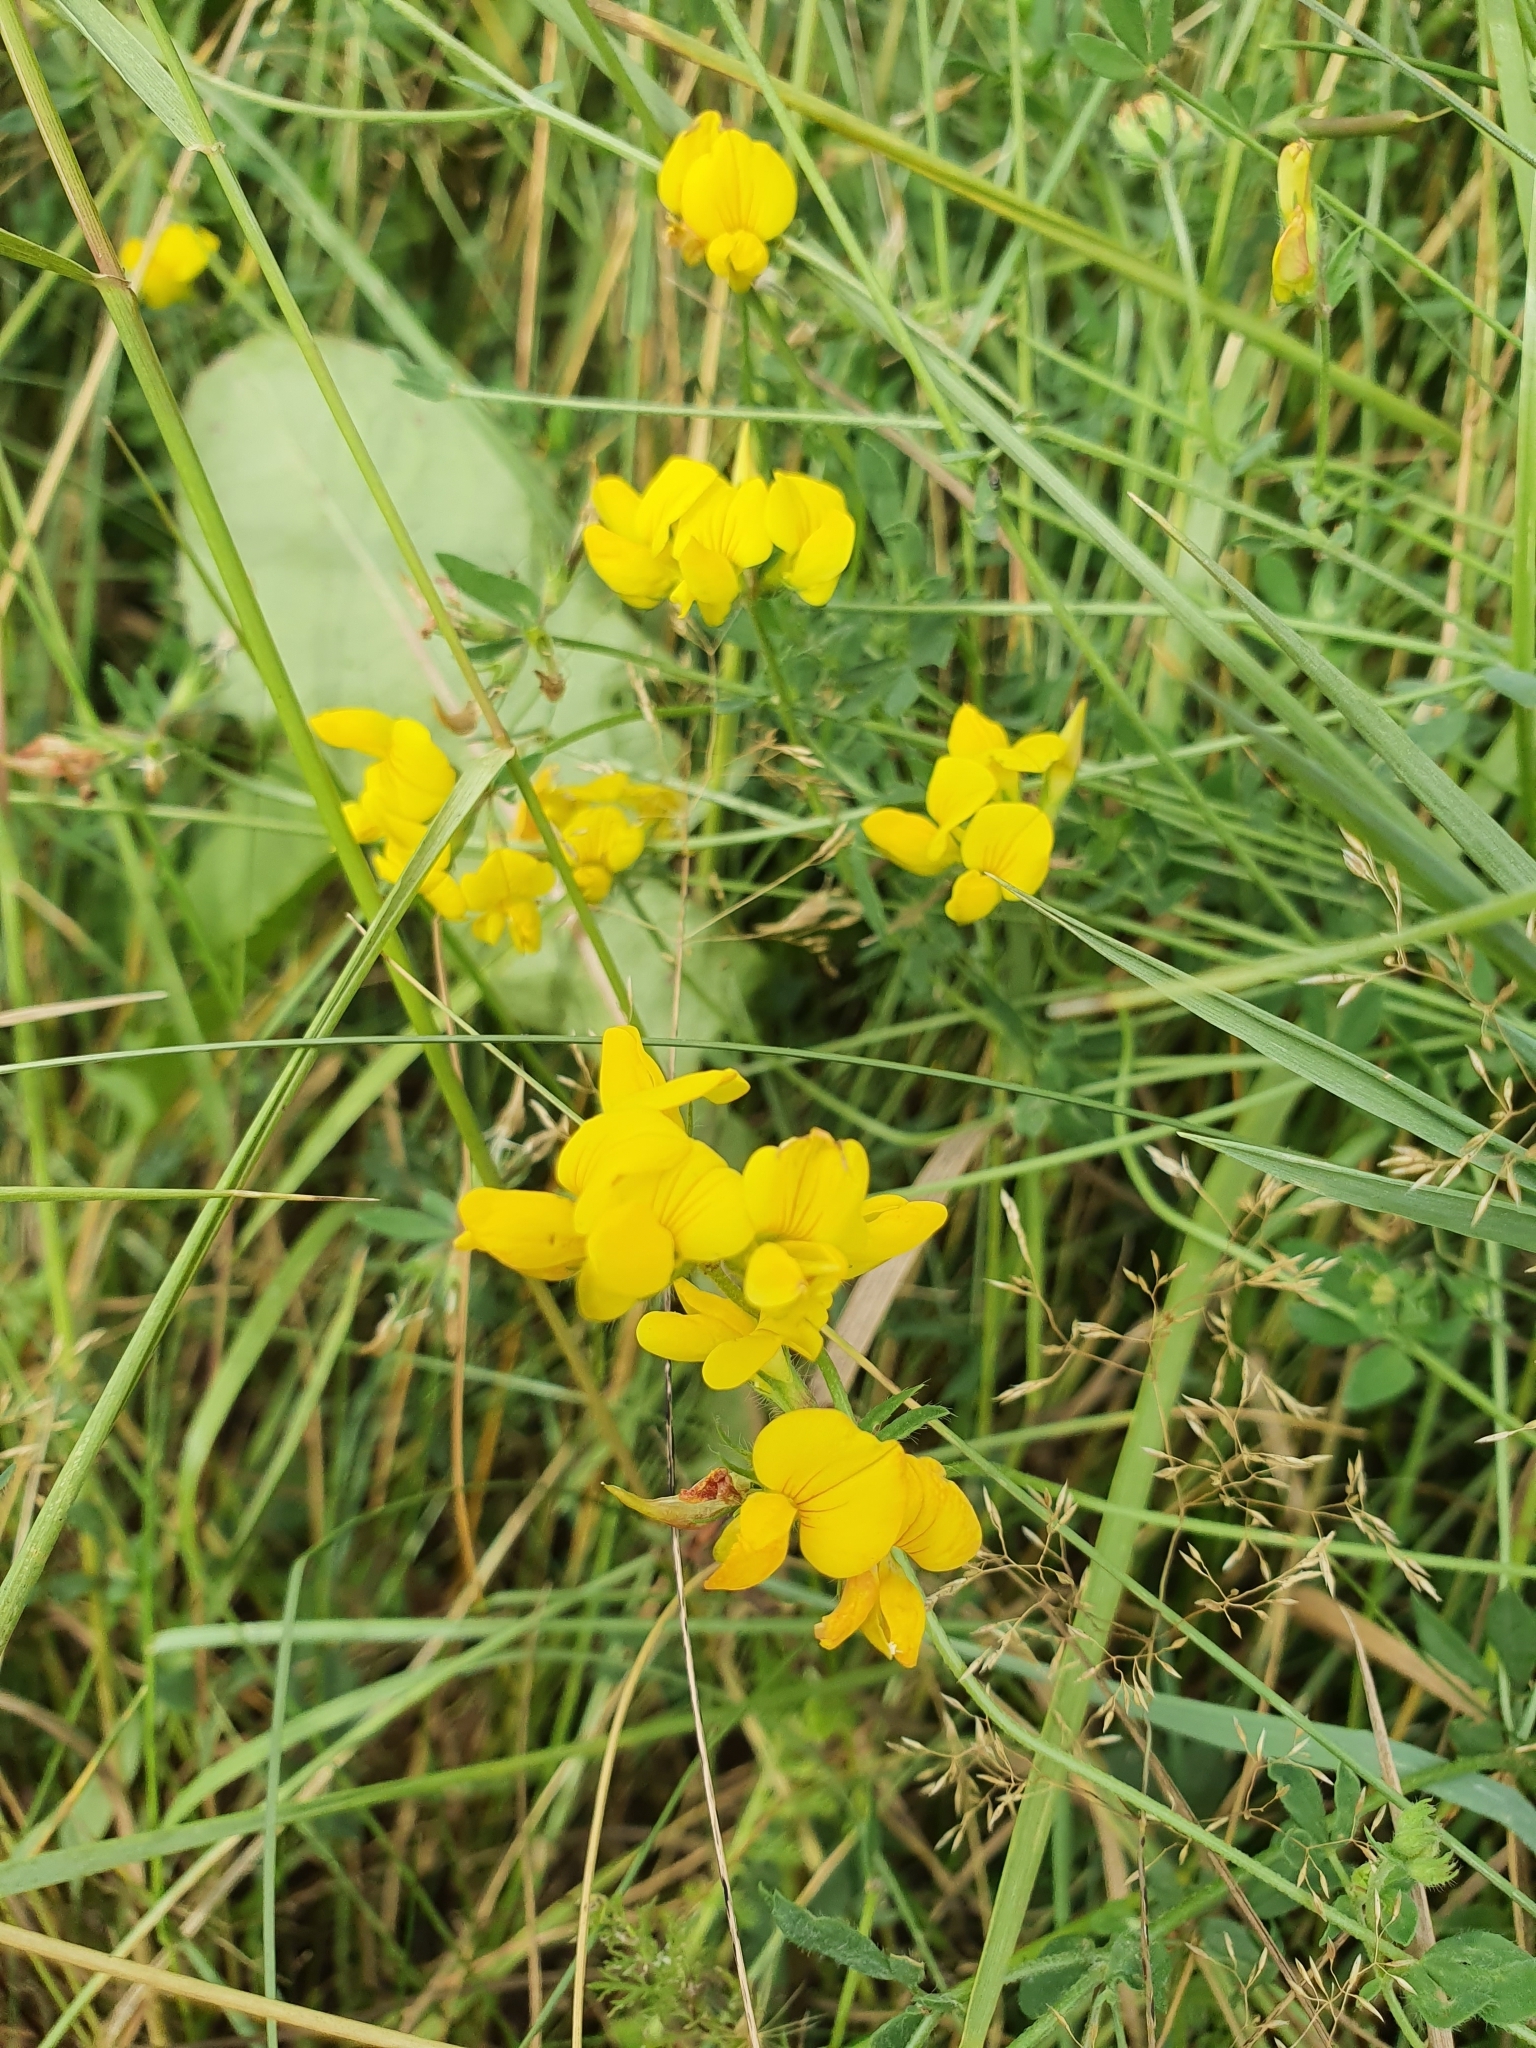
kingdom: Plantae
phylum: Tracheophyta
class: Magnoliopsida
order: Fabales
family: Fabaceae
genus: Lotus
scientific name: Lotus corniculatus
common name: Common bird's-foot-trefoil
